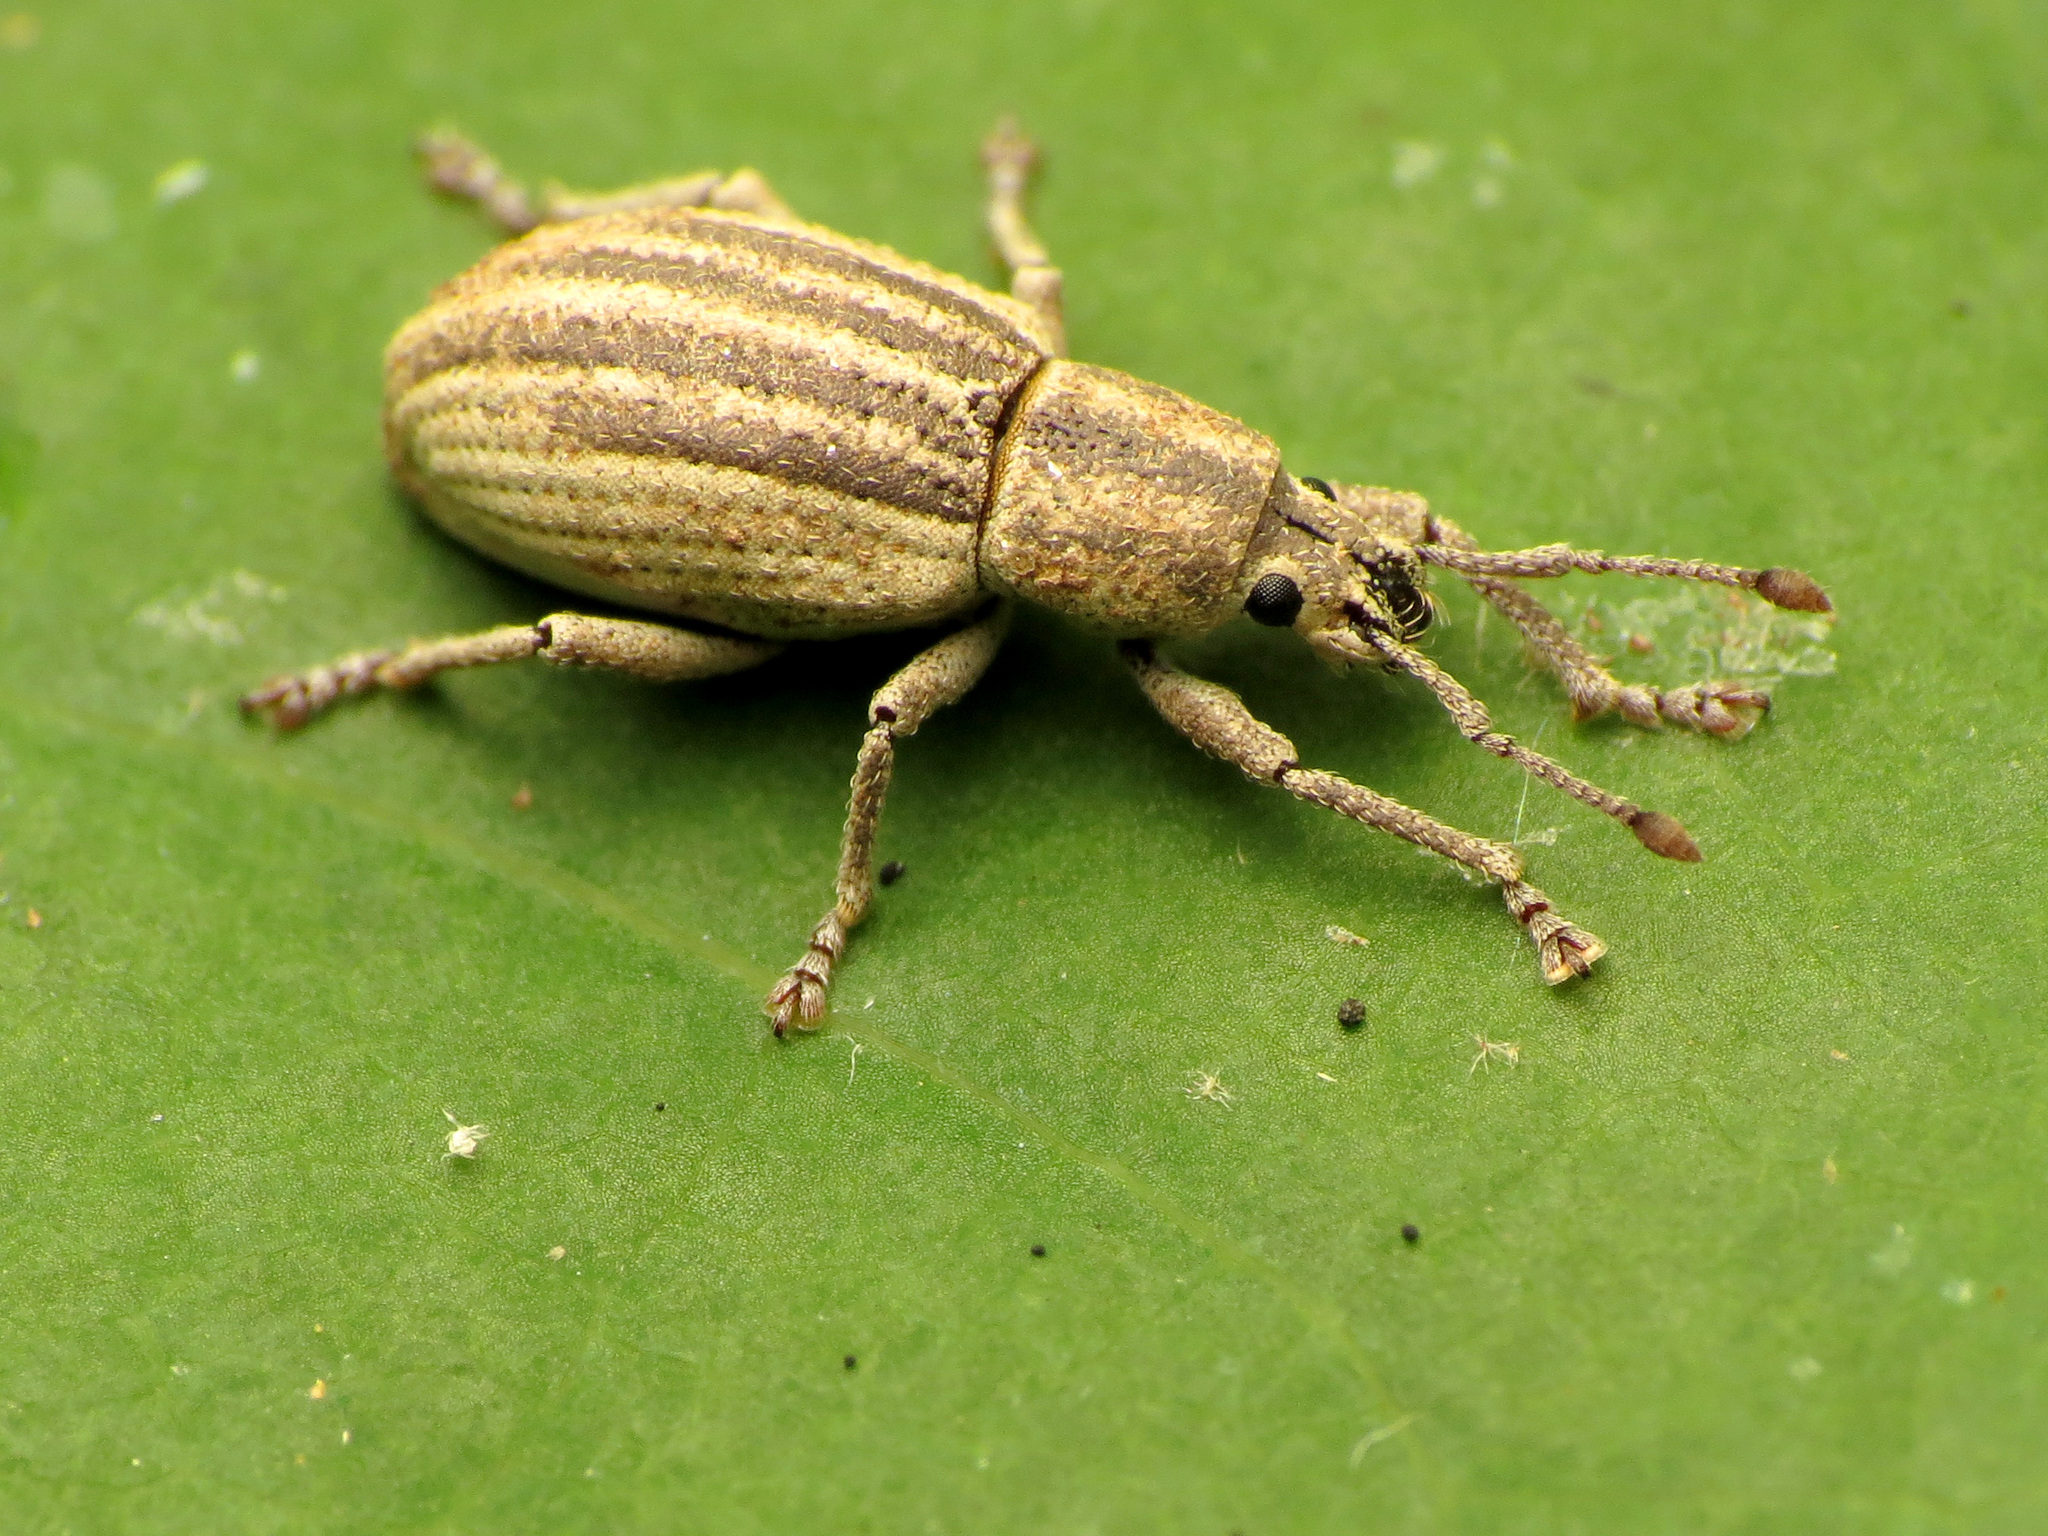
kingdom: Animalia
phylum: Arthropoda
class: Insecta
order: Coleoptera
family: Curculionidae
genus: Aphrastus
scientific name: Aphrastus taeniatus
